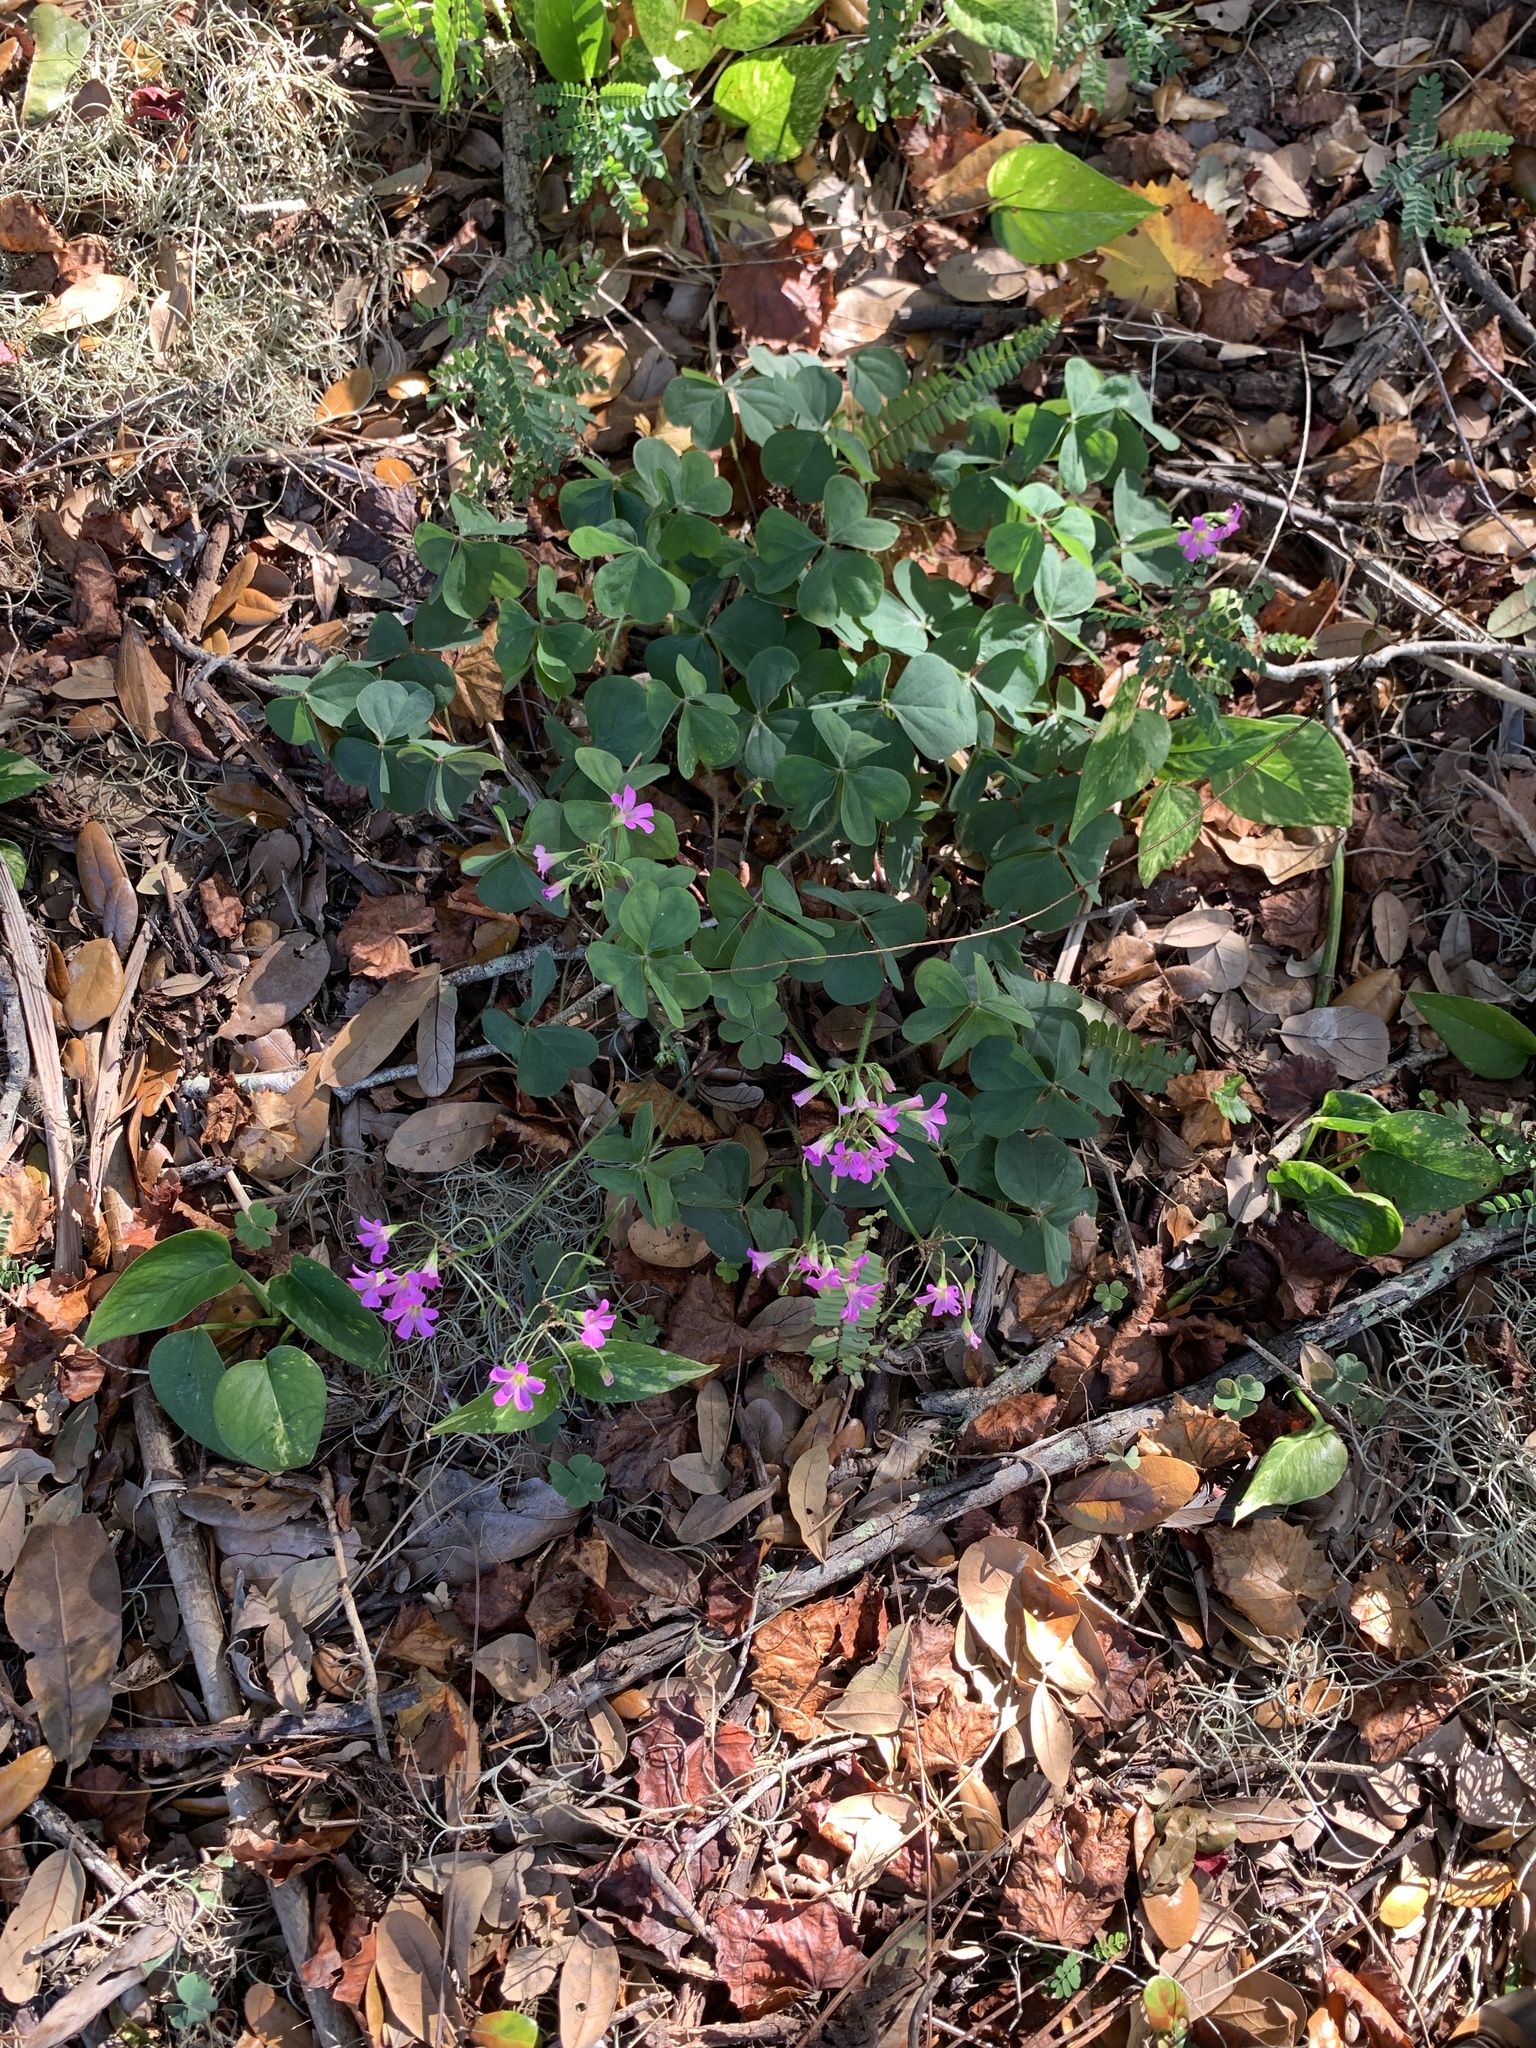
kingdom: Plantae
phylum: Tracheophyta
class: Magnoliopsida
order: Oxalidales
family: Oxalidaceae
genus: Oxalis
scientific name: Oxalis debilis
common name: Large-flowered pink-sorrel
